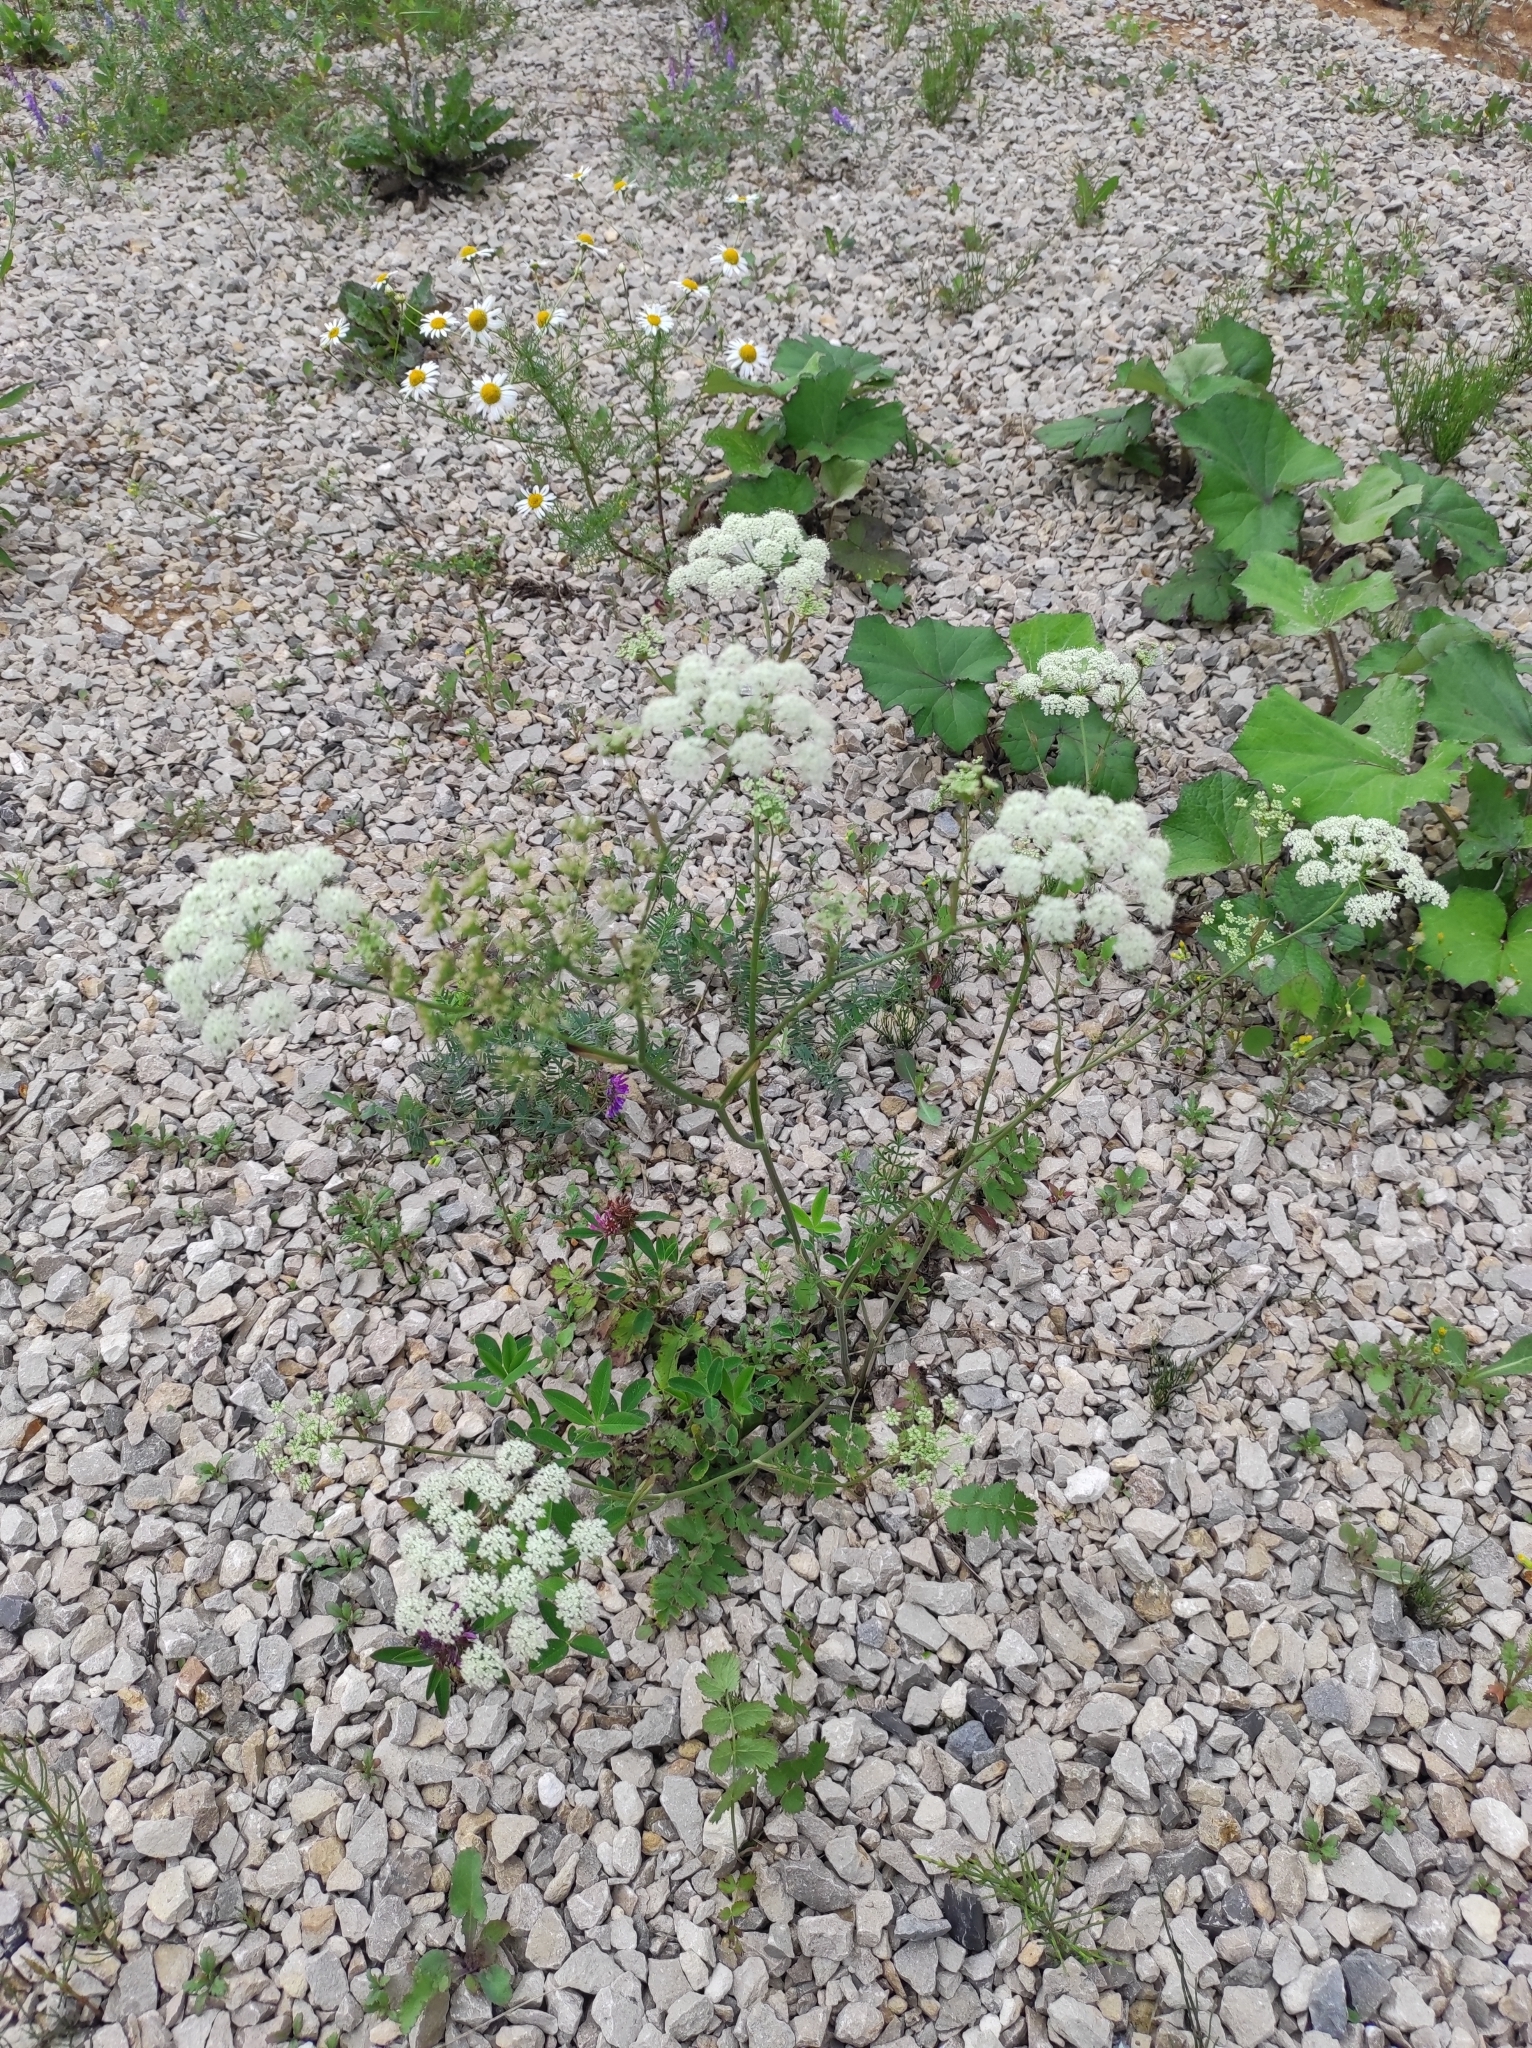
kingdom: Plantae
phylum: Tracheophyta
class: Magnoliopsida
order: Apiales
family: Apiaceae
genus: Pimpinella
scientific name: Pimpinella saxifraga
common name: Burnet-saxifrage
